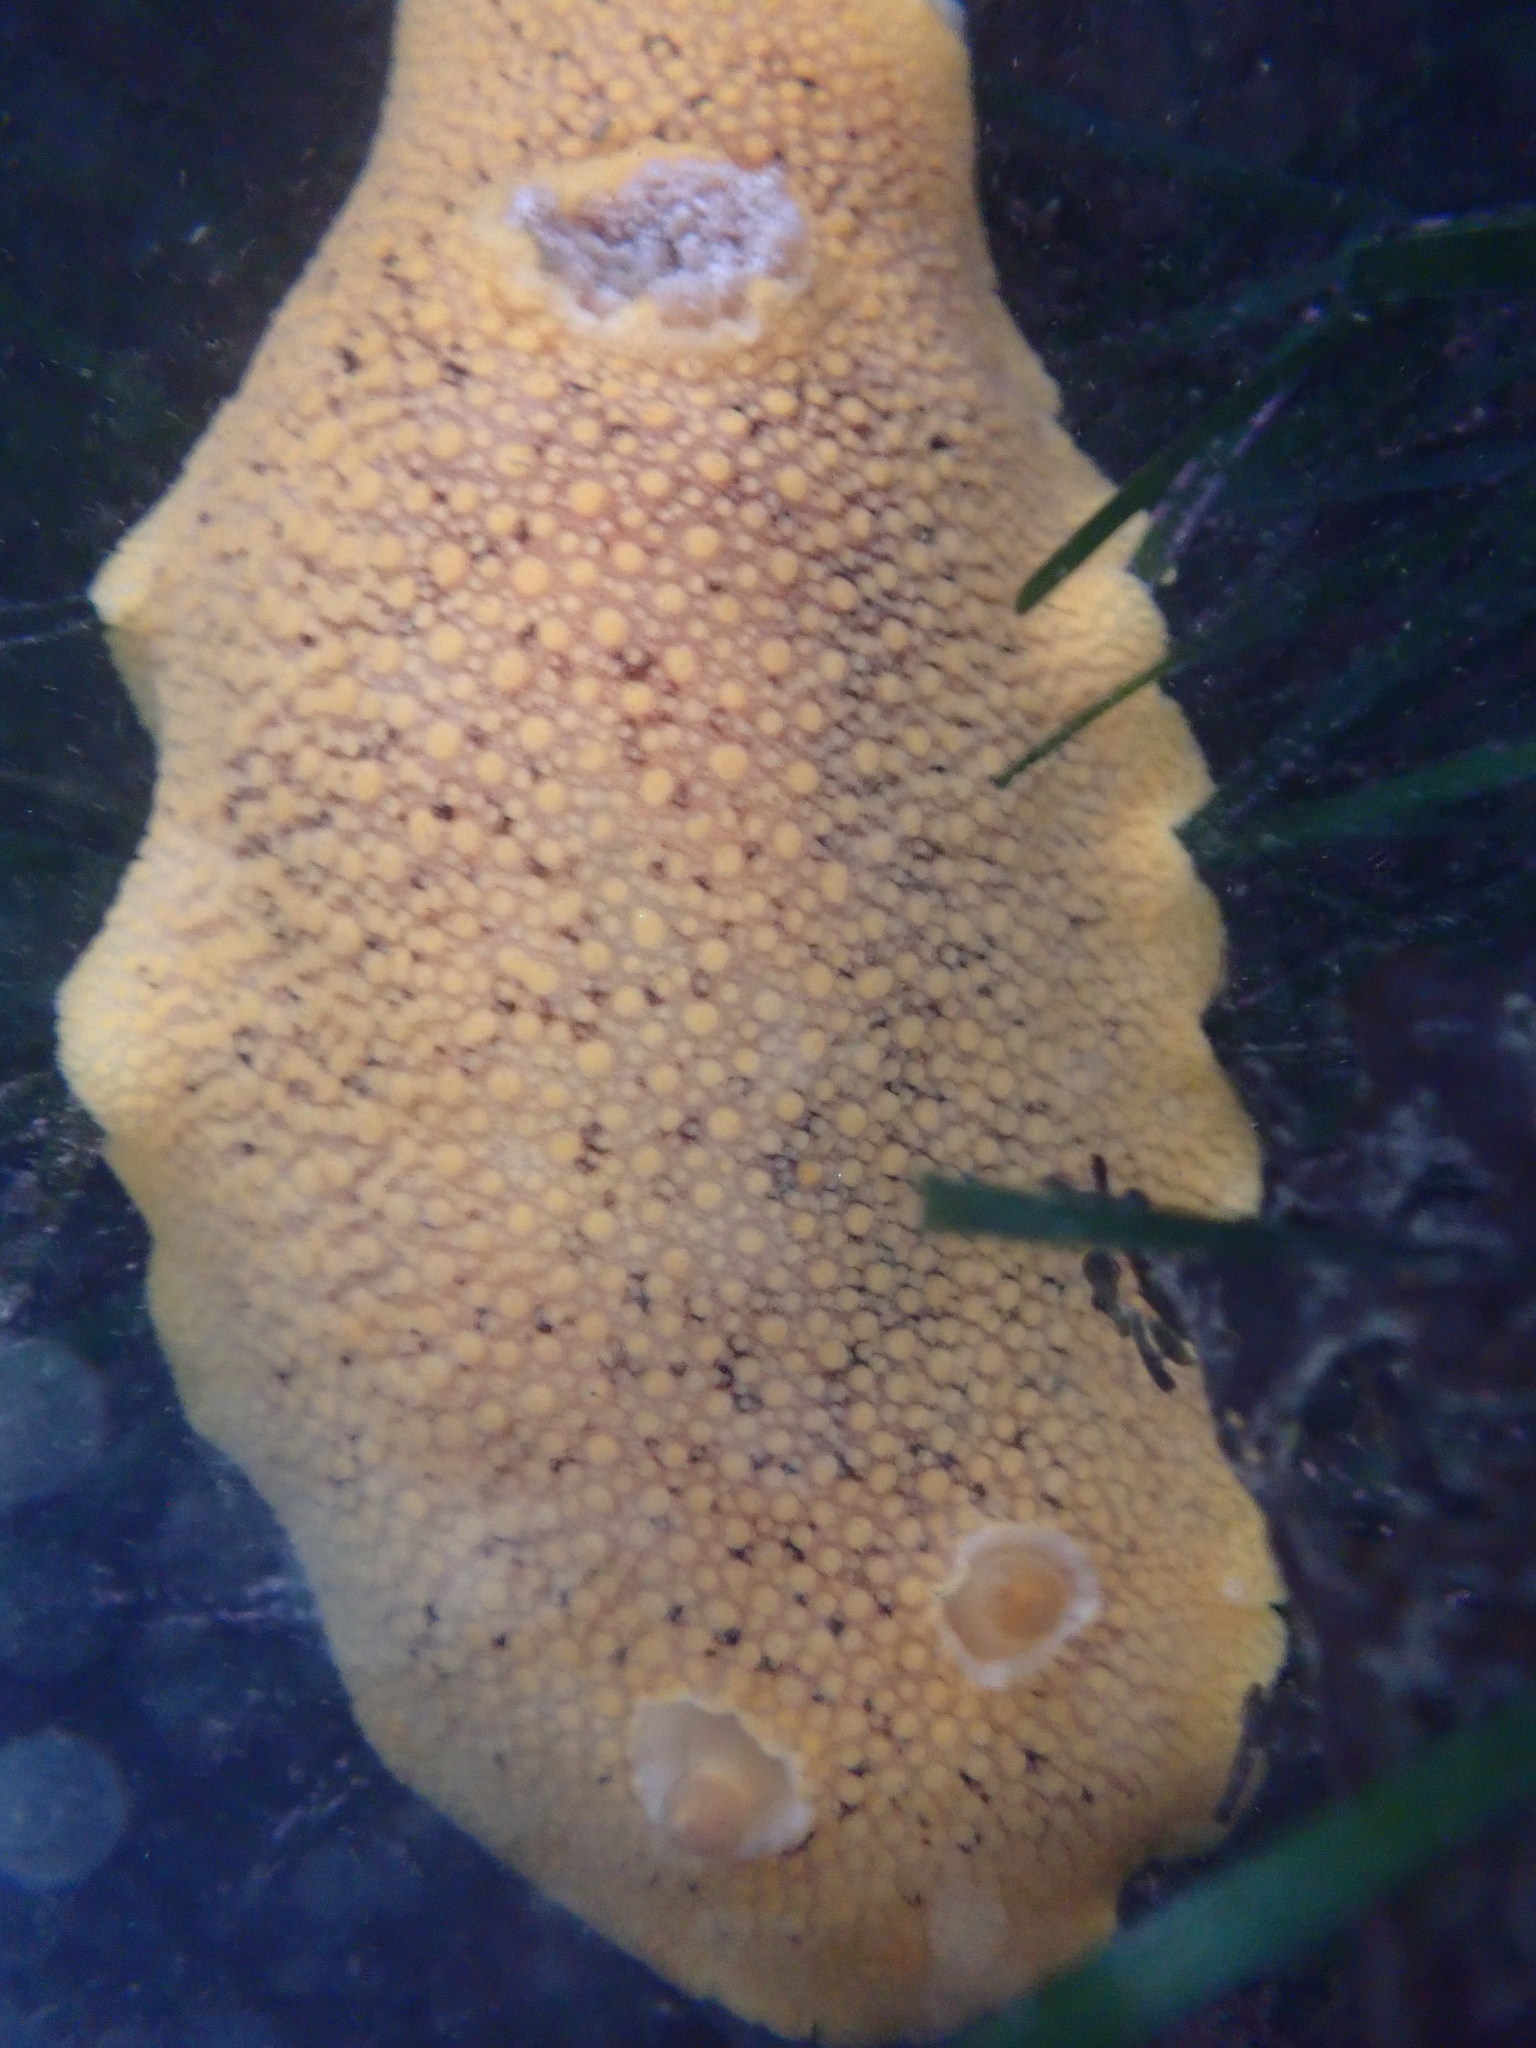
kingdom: Animalia
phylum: Mollusca
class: Gastropoda
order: Nudibranchia
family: Discodorididae
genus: Peltodoris
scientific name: Peltodoris nobilis
